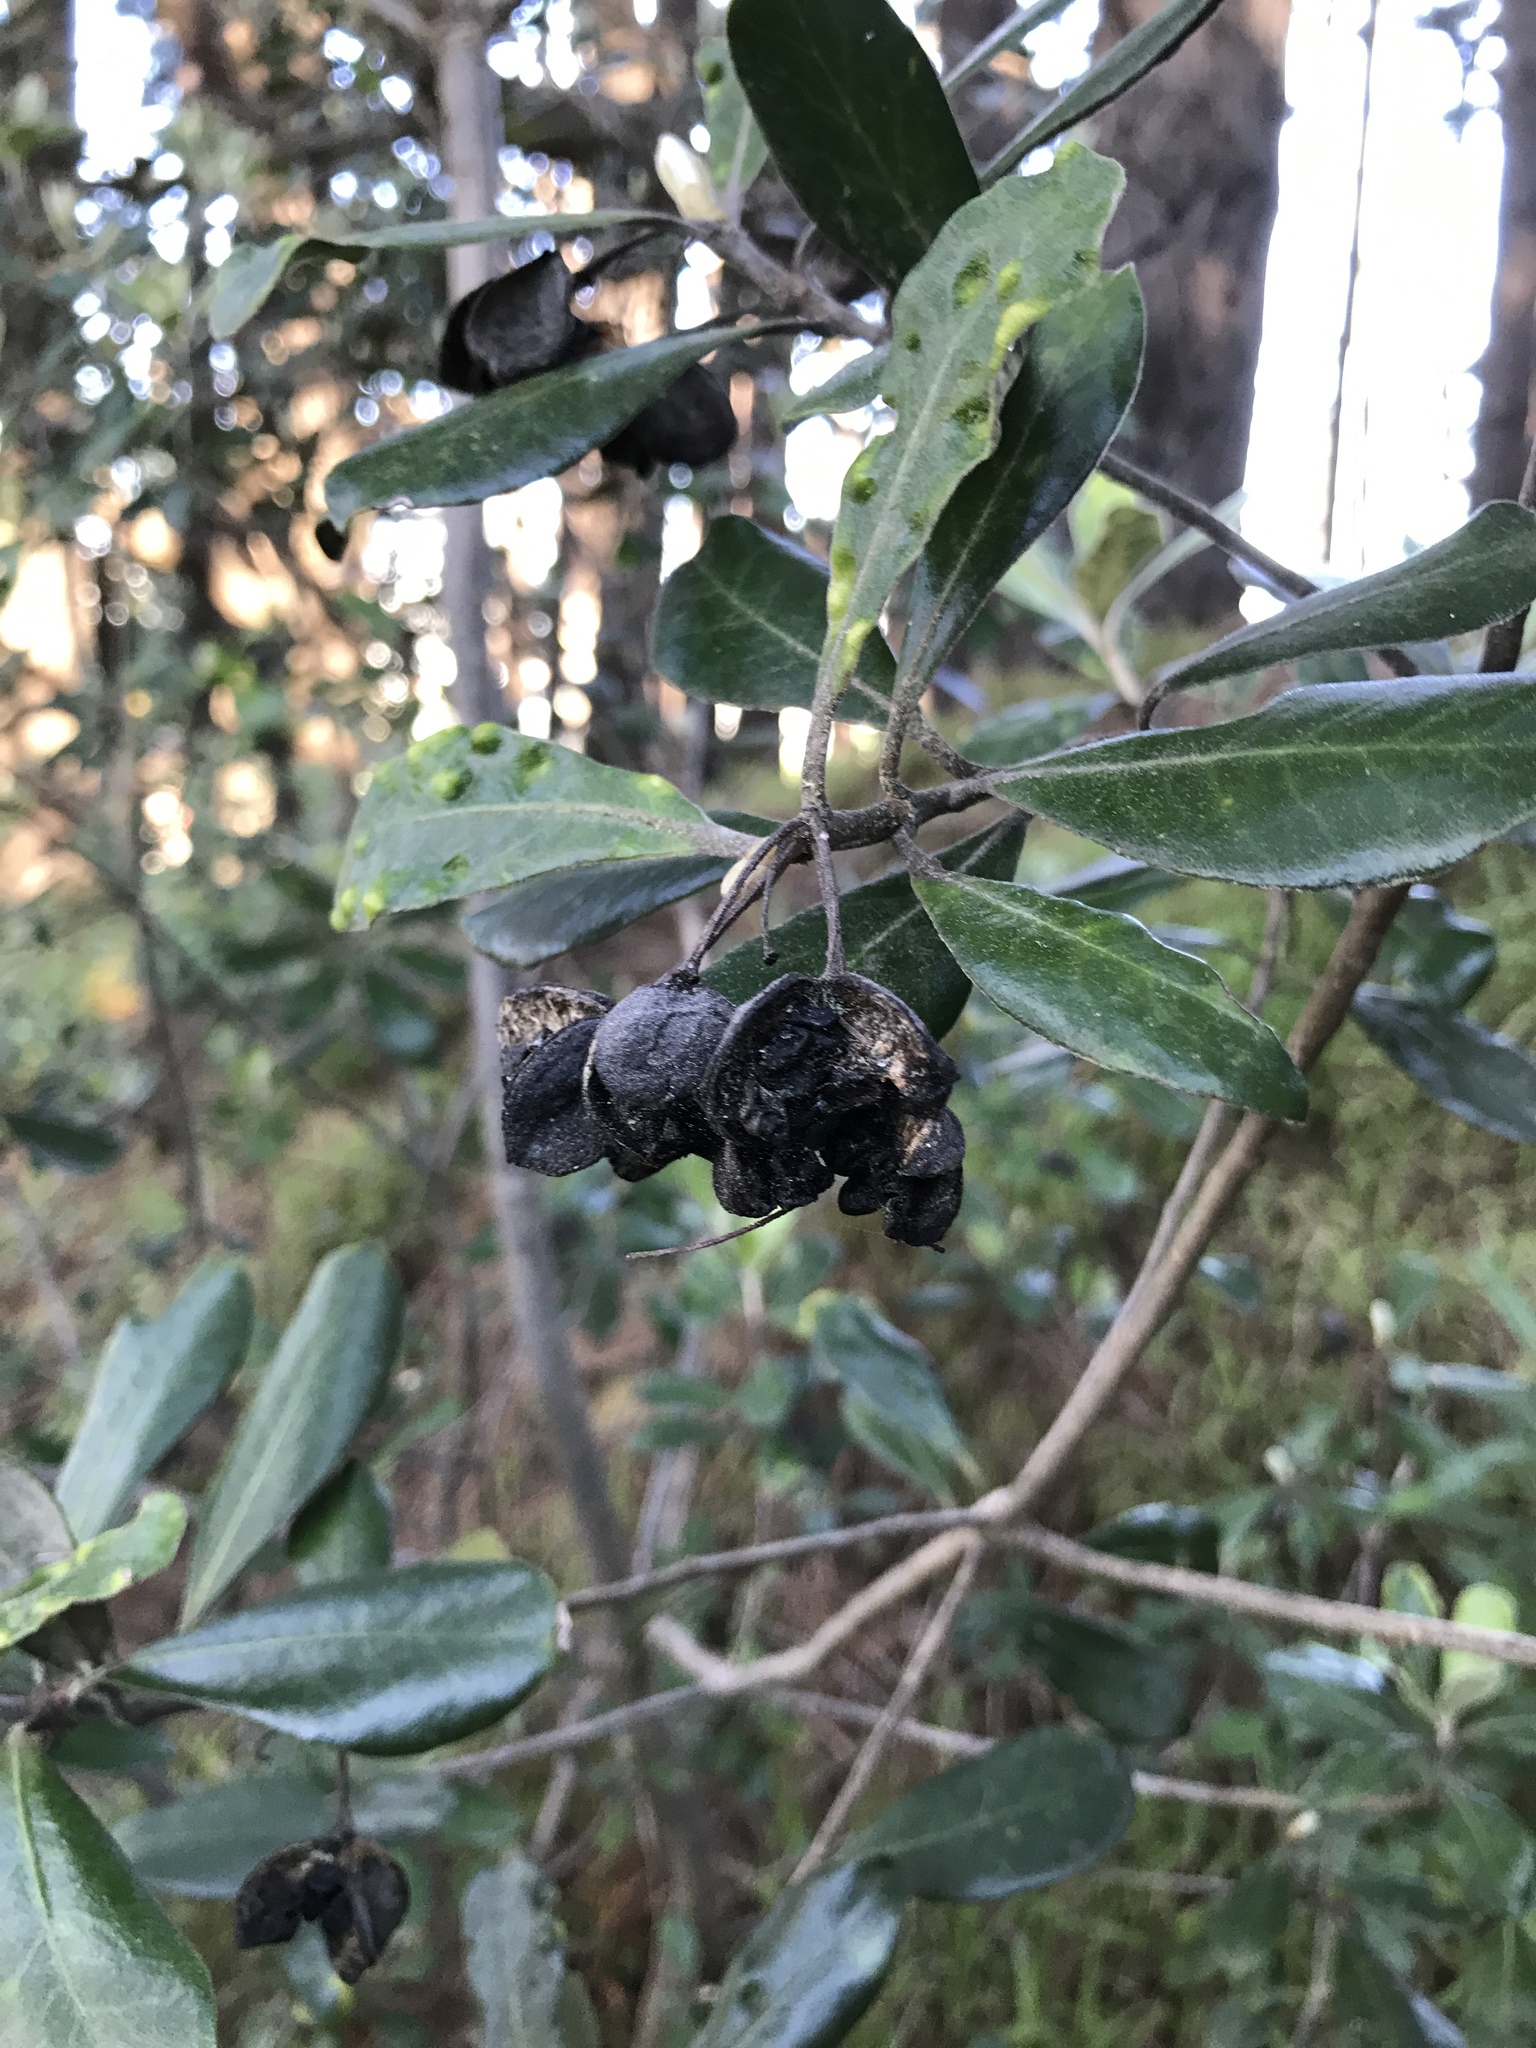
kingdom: Plantae
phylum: Tracheophyta
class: Magnoliopsida
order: Apiales
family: Pittosporaceae
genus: Pittosporum
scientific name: Pittosporum crassifolium
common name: Karo
